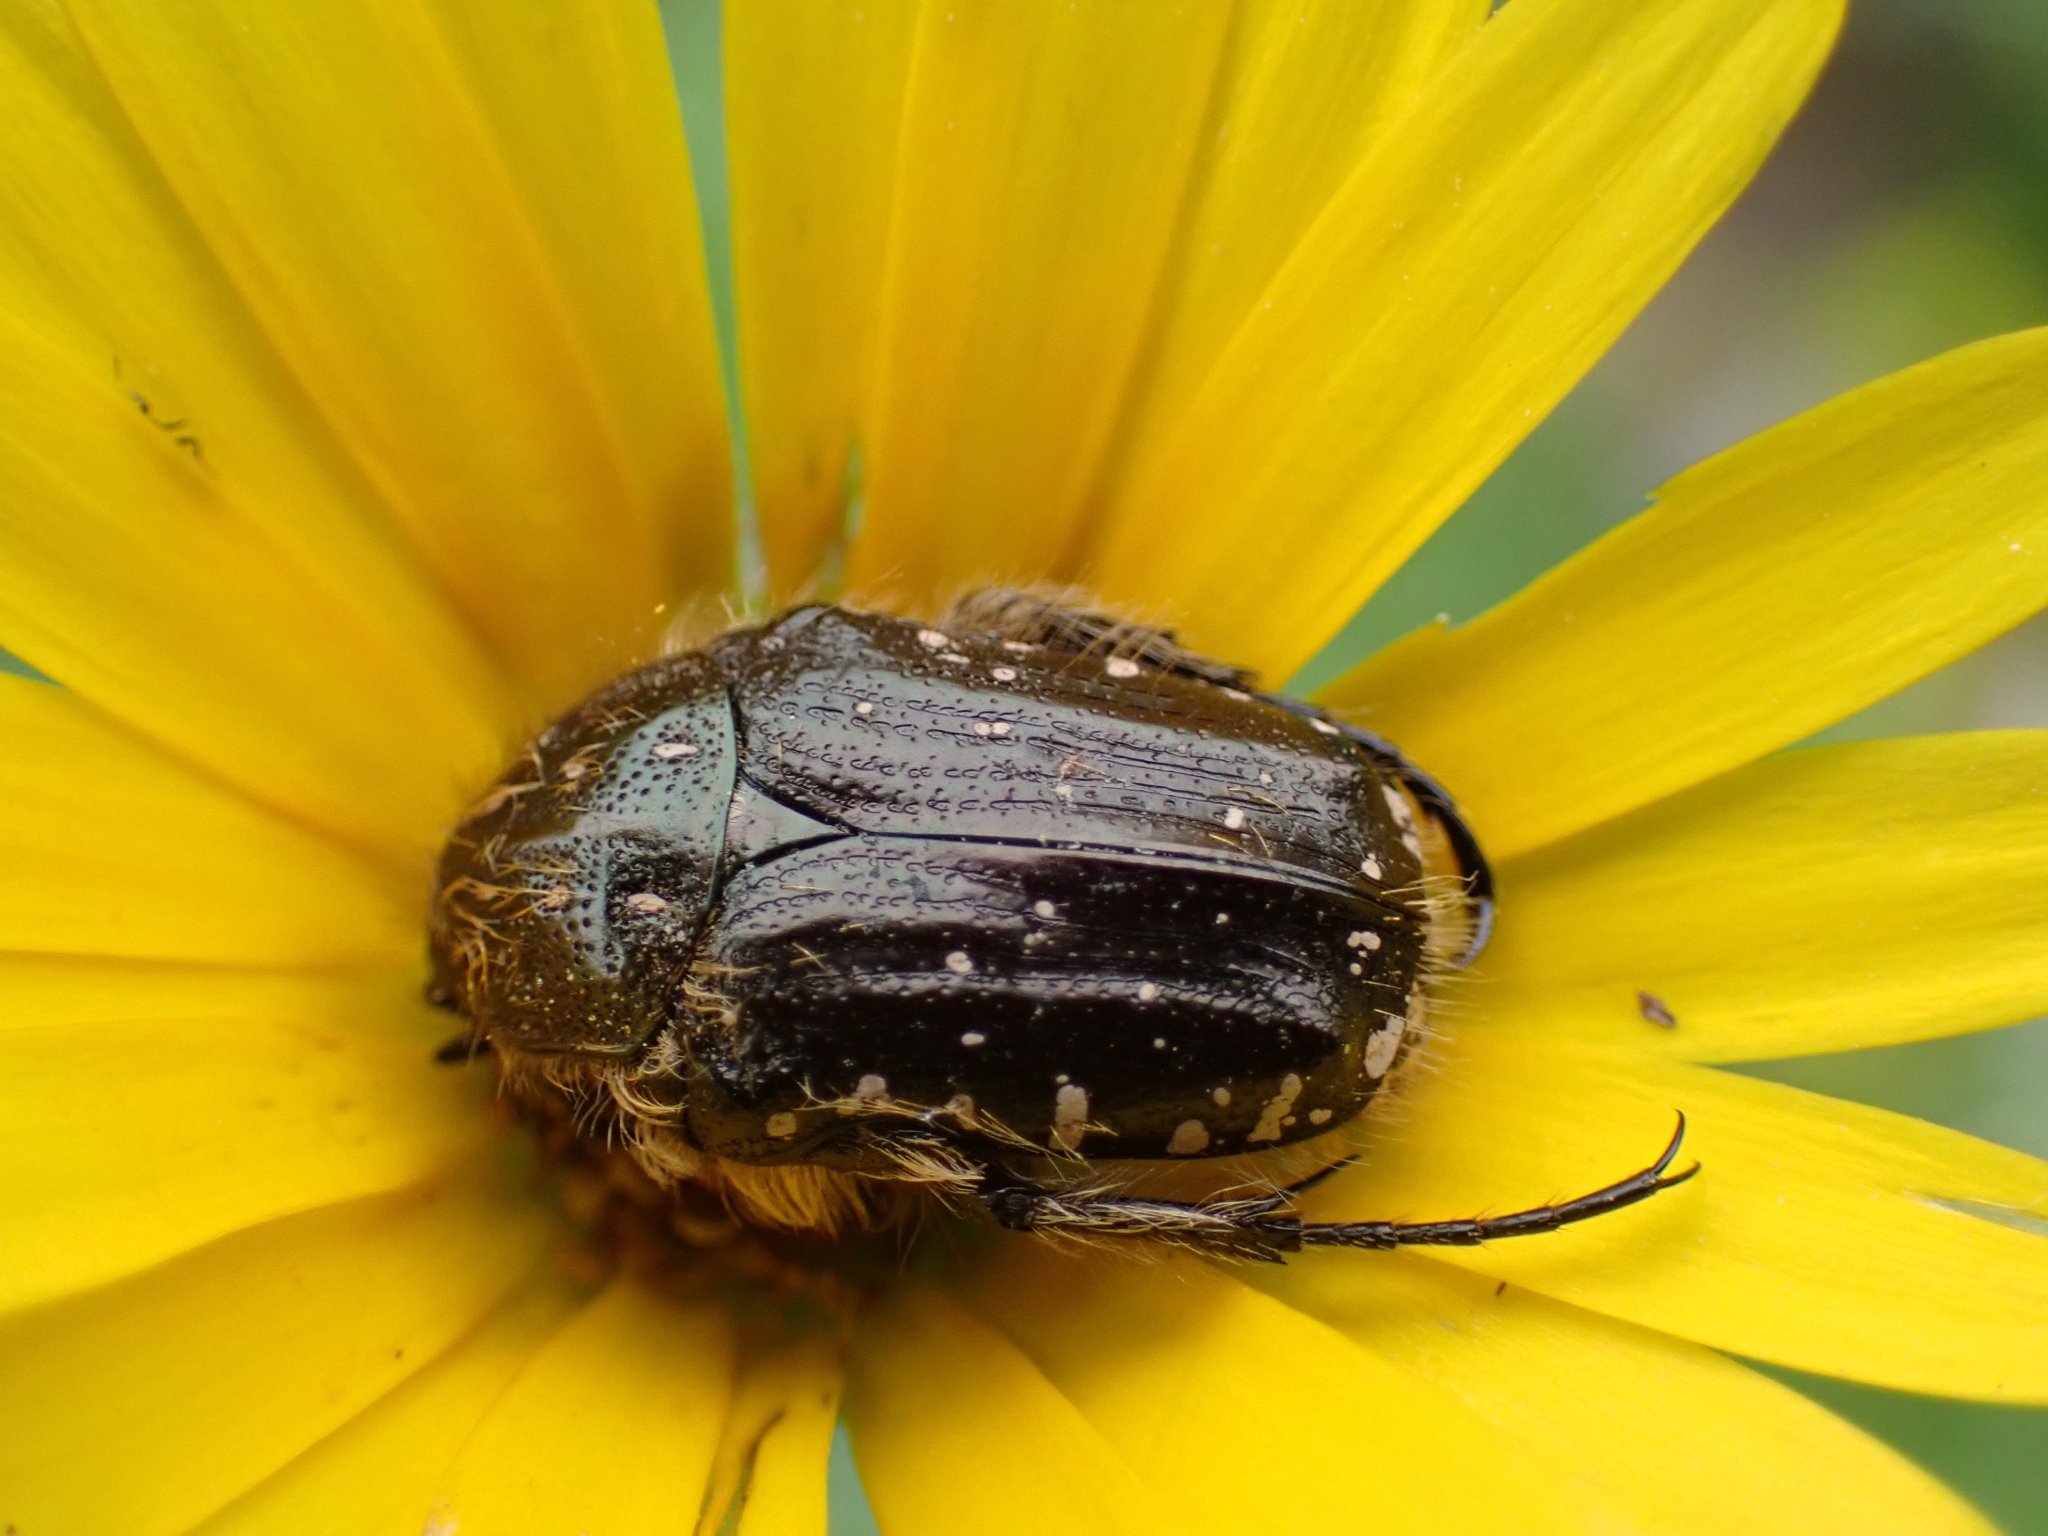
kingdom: Animalia
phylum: Arthropoda
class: Insecta
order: Coleoptera
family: Scarabaeidae
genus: Oxythyrea
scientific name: Oxythyrea funesta
